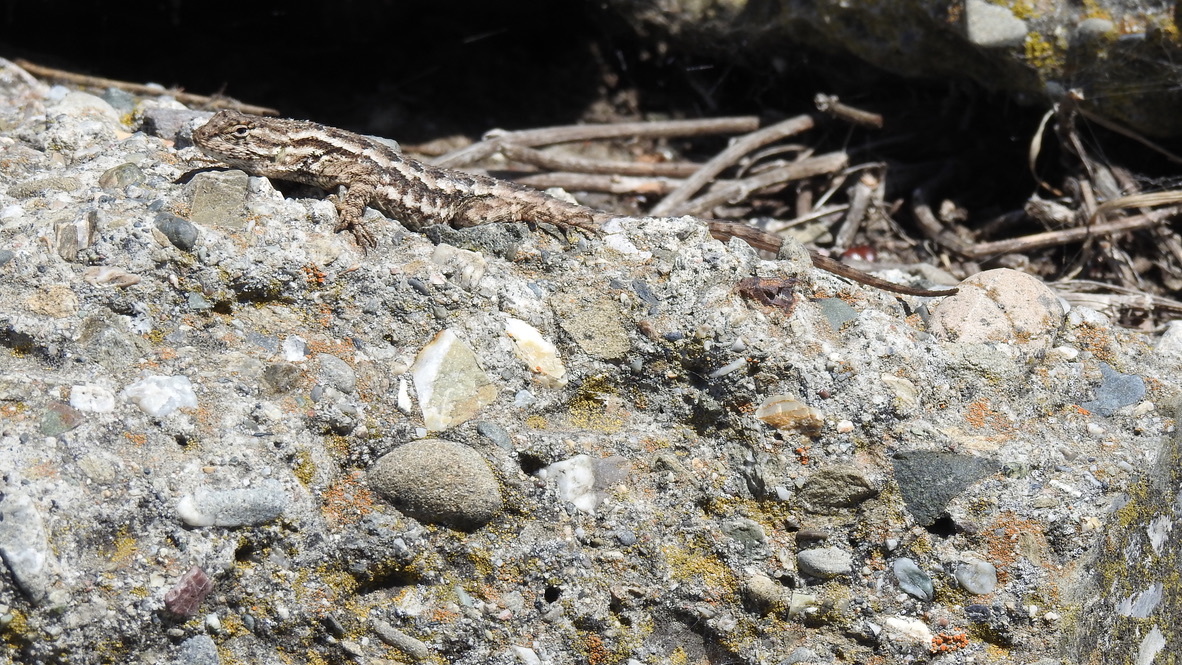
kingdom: Animalia
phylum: Chordata
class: Squamata
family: Phrynosomatidae
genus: Sceloporus
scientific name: Sceloporus occidentalis
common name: Western fence lizard
